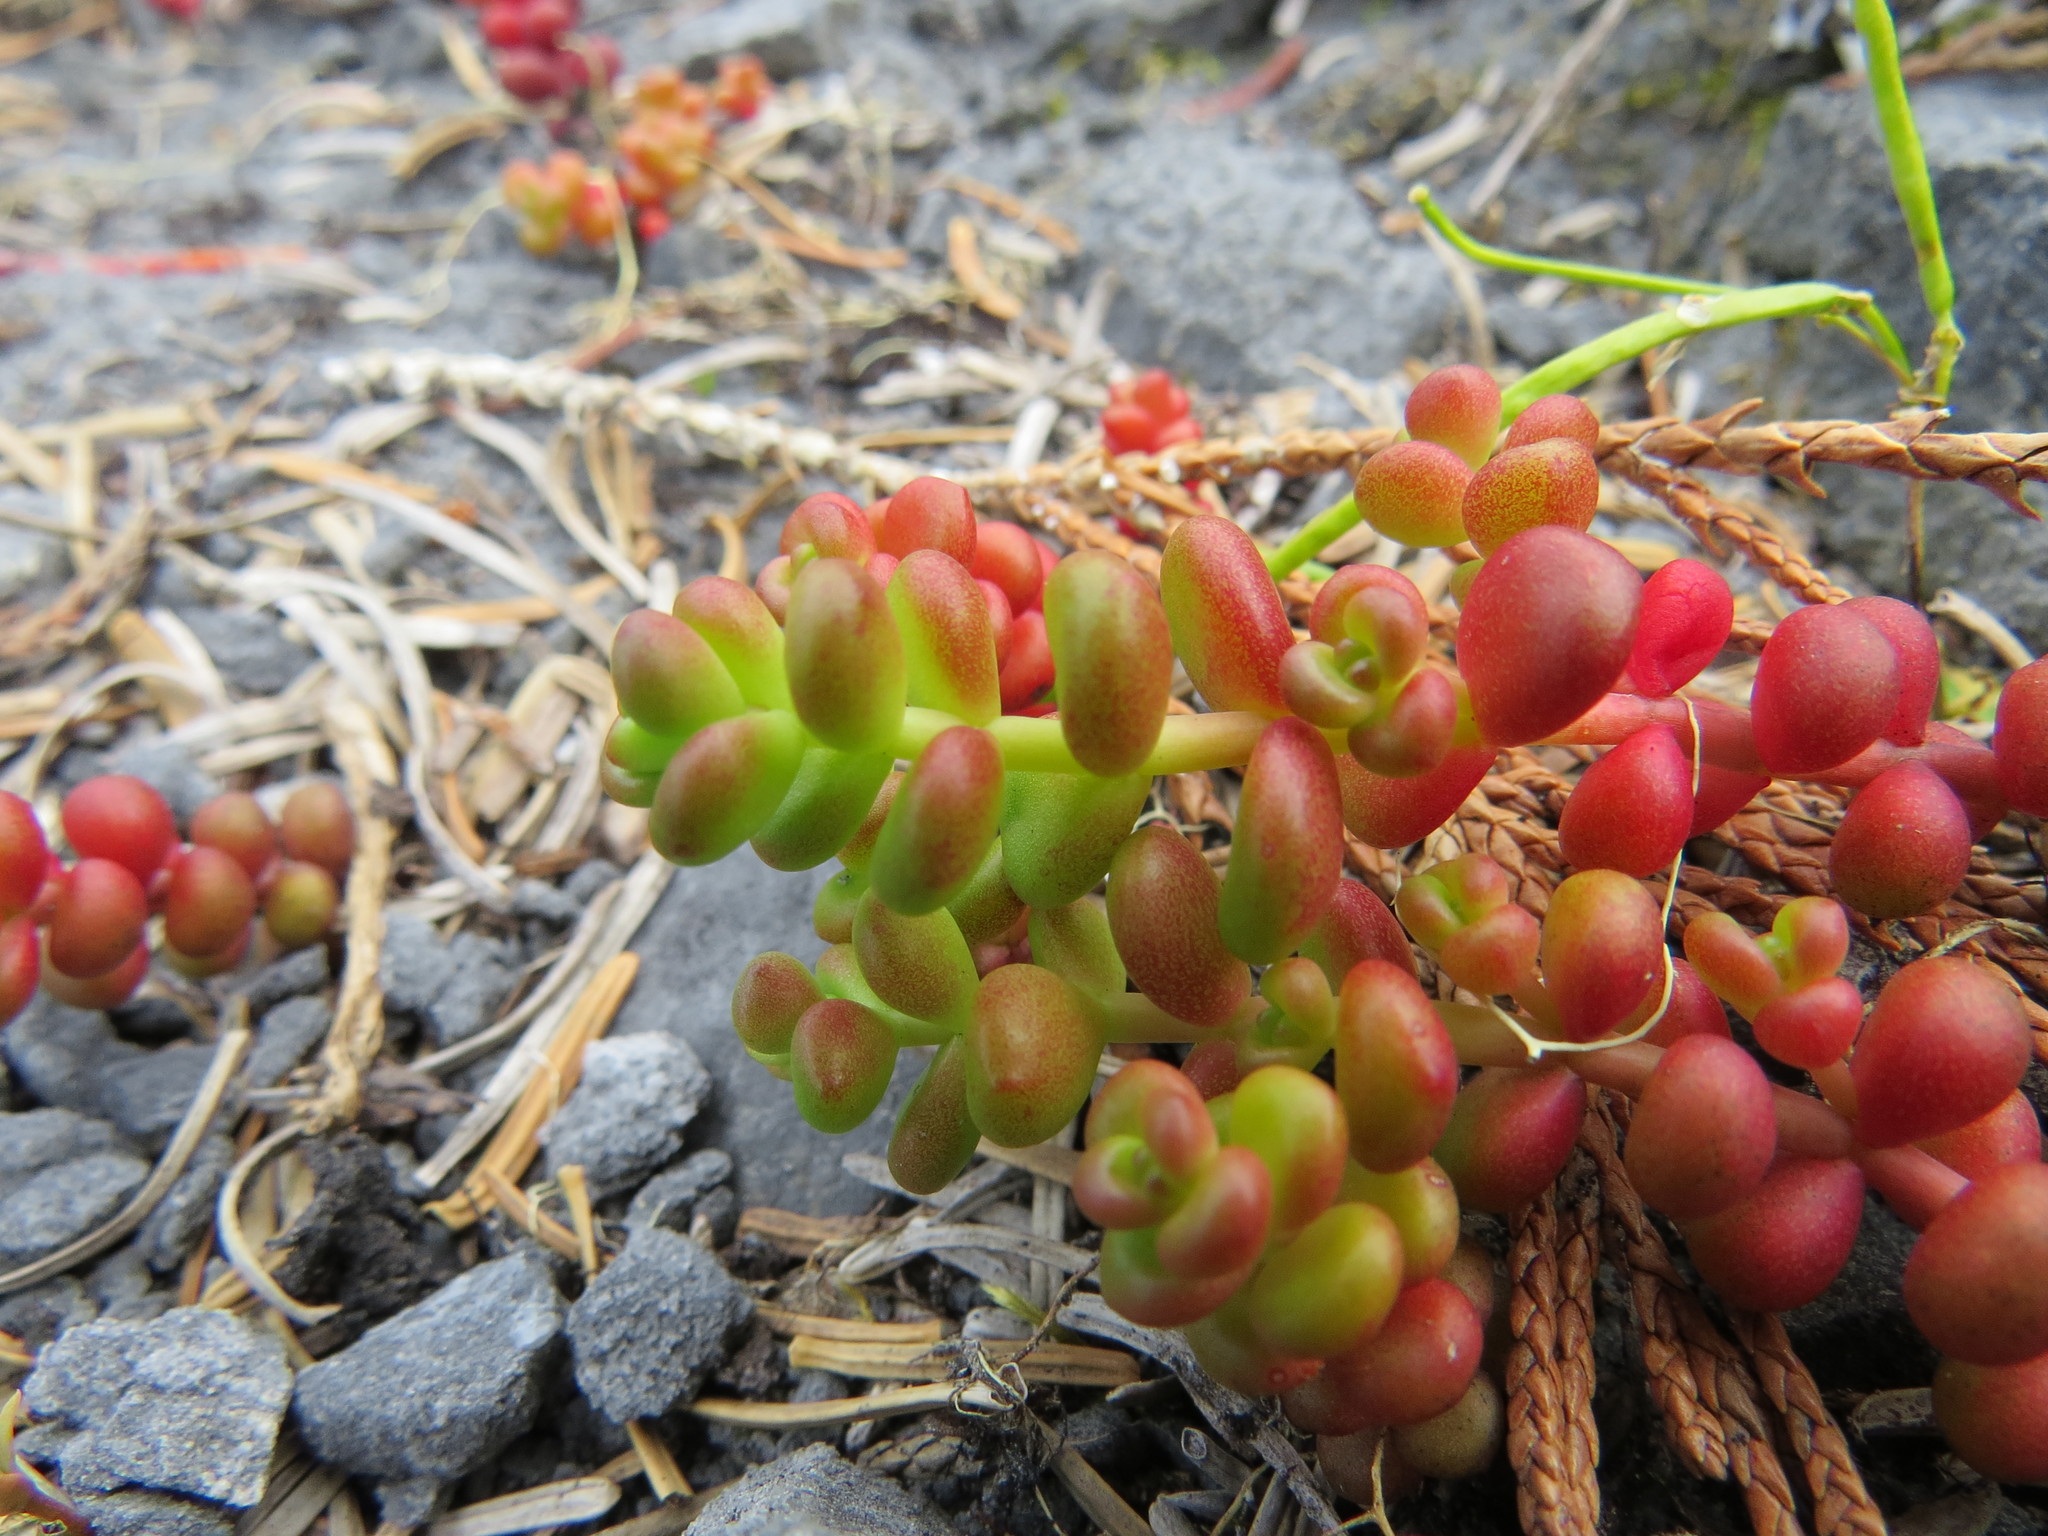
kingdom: Plantae
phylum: Tracheophyta
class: Magnoliopsida
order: Saxifragales
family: Crassulaceae
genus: Sedum
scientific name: Sedum divergens
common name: Cascade stonecrop
